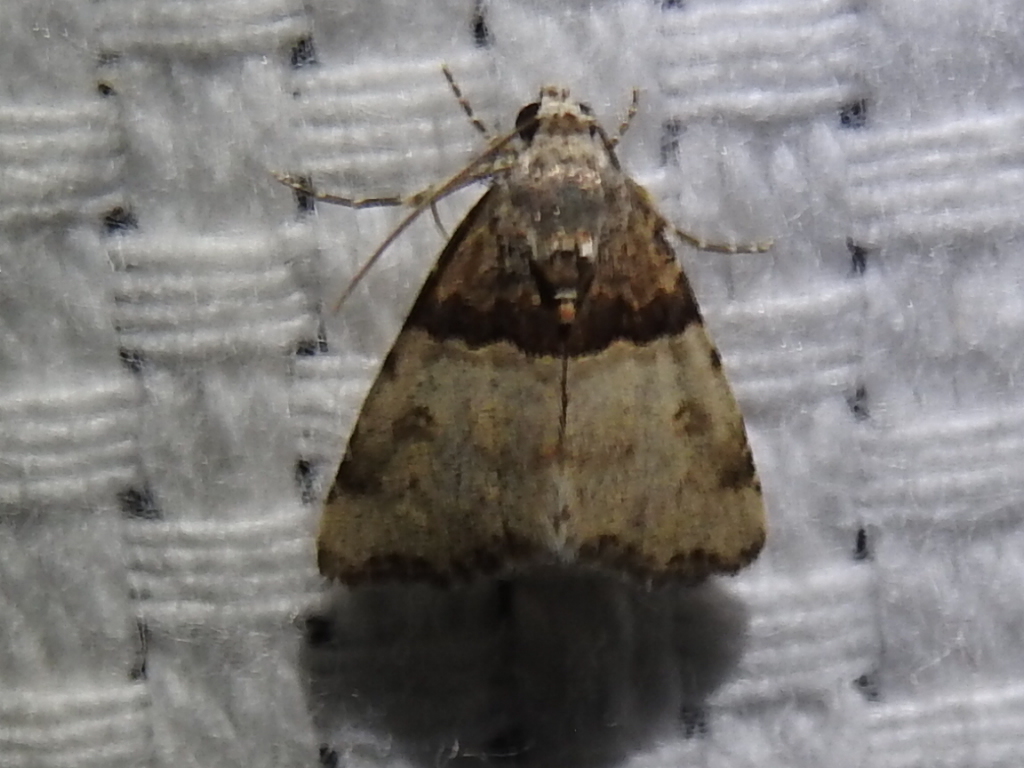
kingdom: Animalia
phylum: Arthropoda
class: Insecta
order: Lepidoptera
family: Noctuidae
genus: Cobubatha
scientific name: Cobubatha dividua
